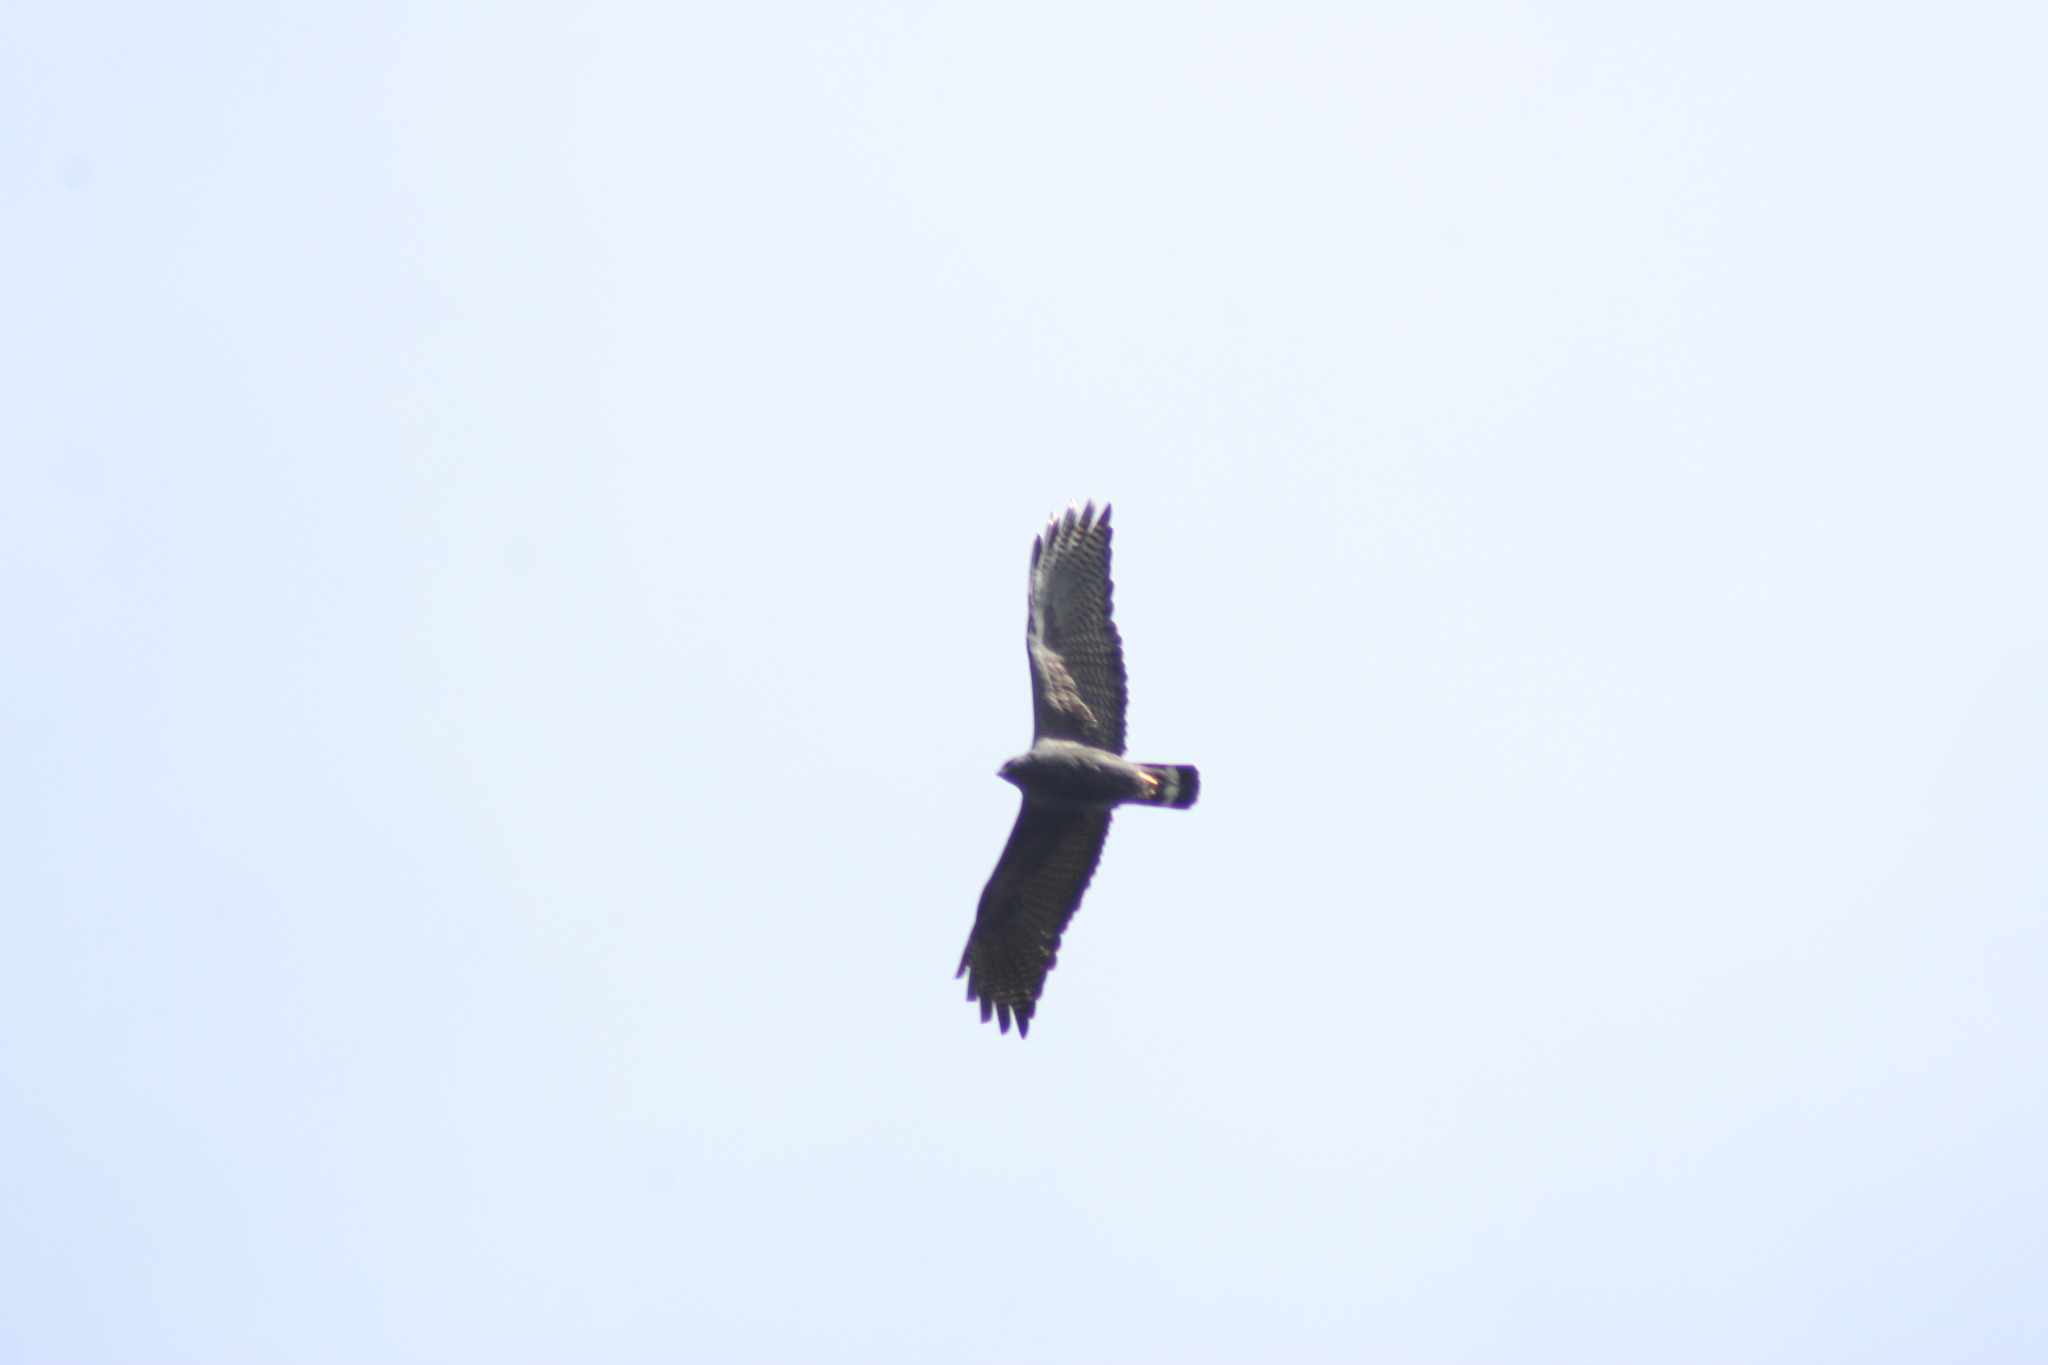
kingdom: Animalia
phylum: Chordata
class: Aves
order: Accipitriformes
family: Accipitridae
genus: Buteo
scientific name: Buteo albonotatus
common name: Zone-tailed hawk
